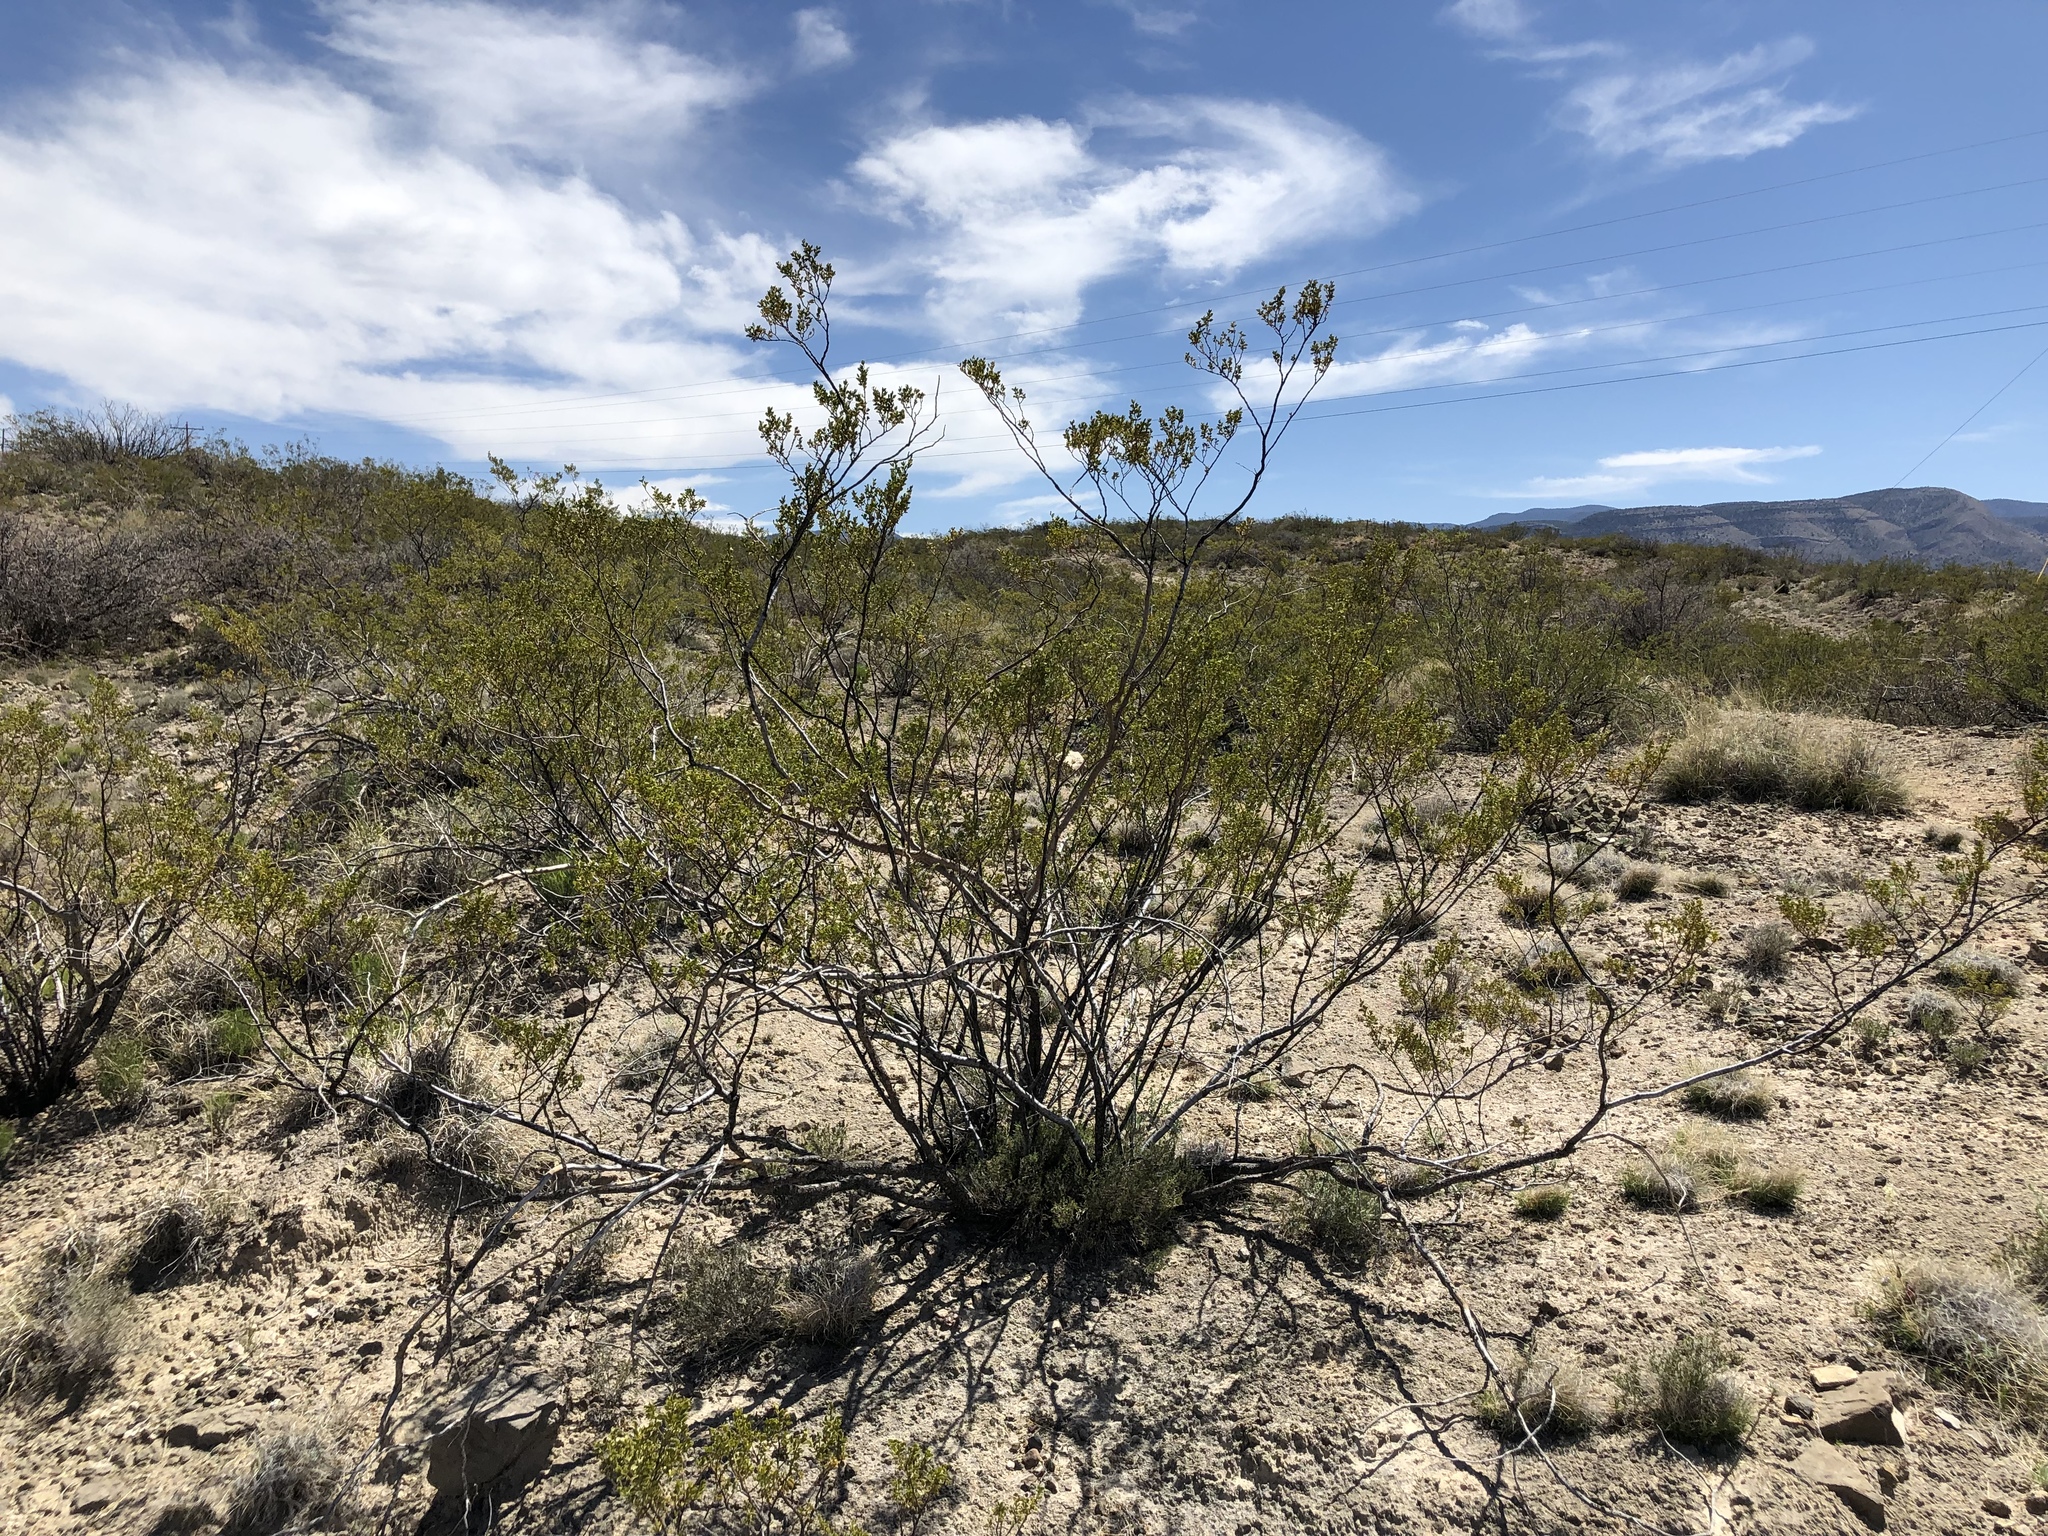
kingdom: Plantae
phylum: Tracheophyta
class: Magnoliopsida
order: Zygophyllales
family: Zygophyllaceae
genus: Larrea
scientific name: Larrea tridentata
